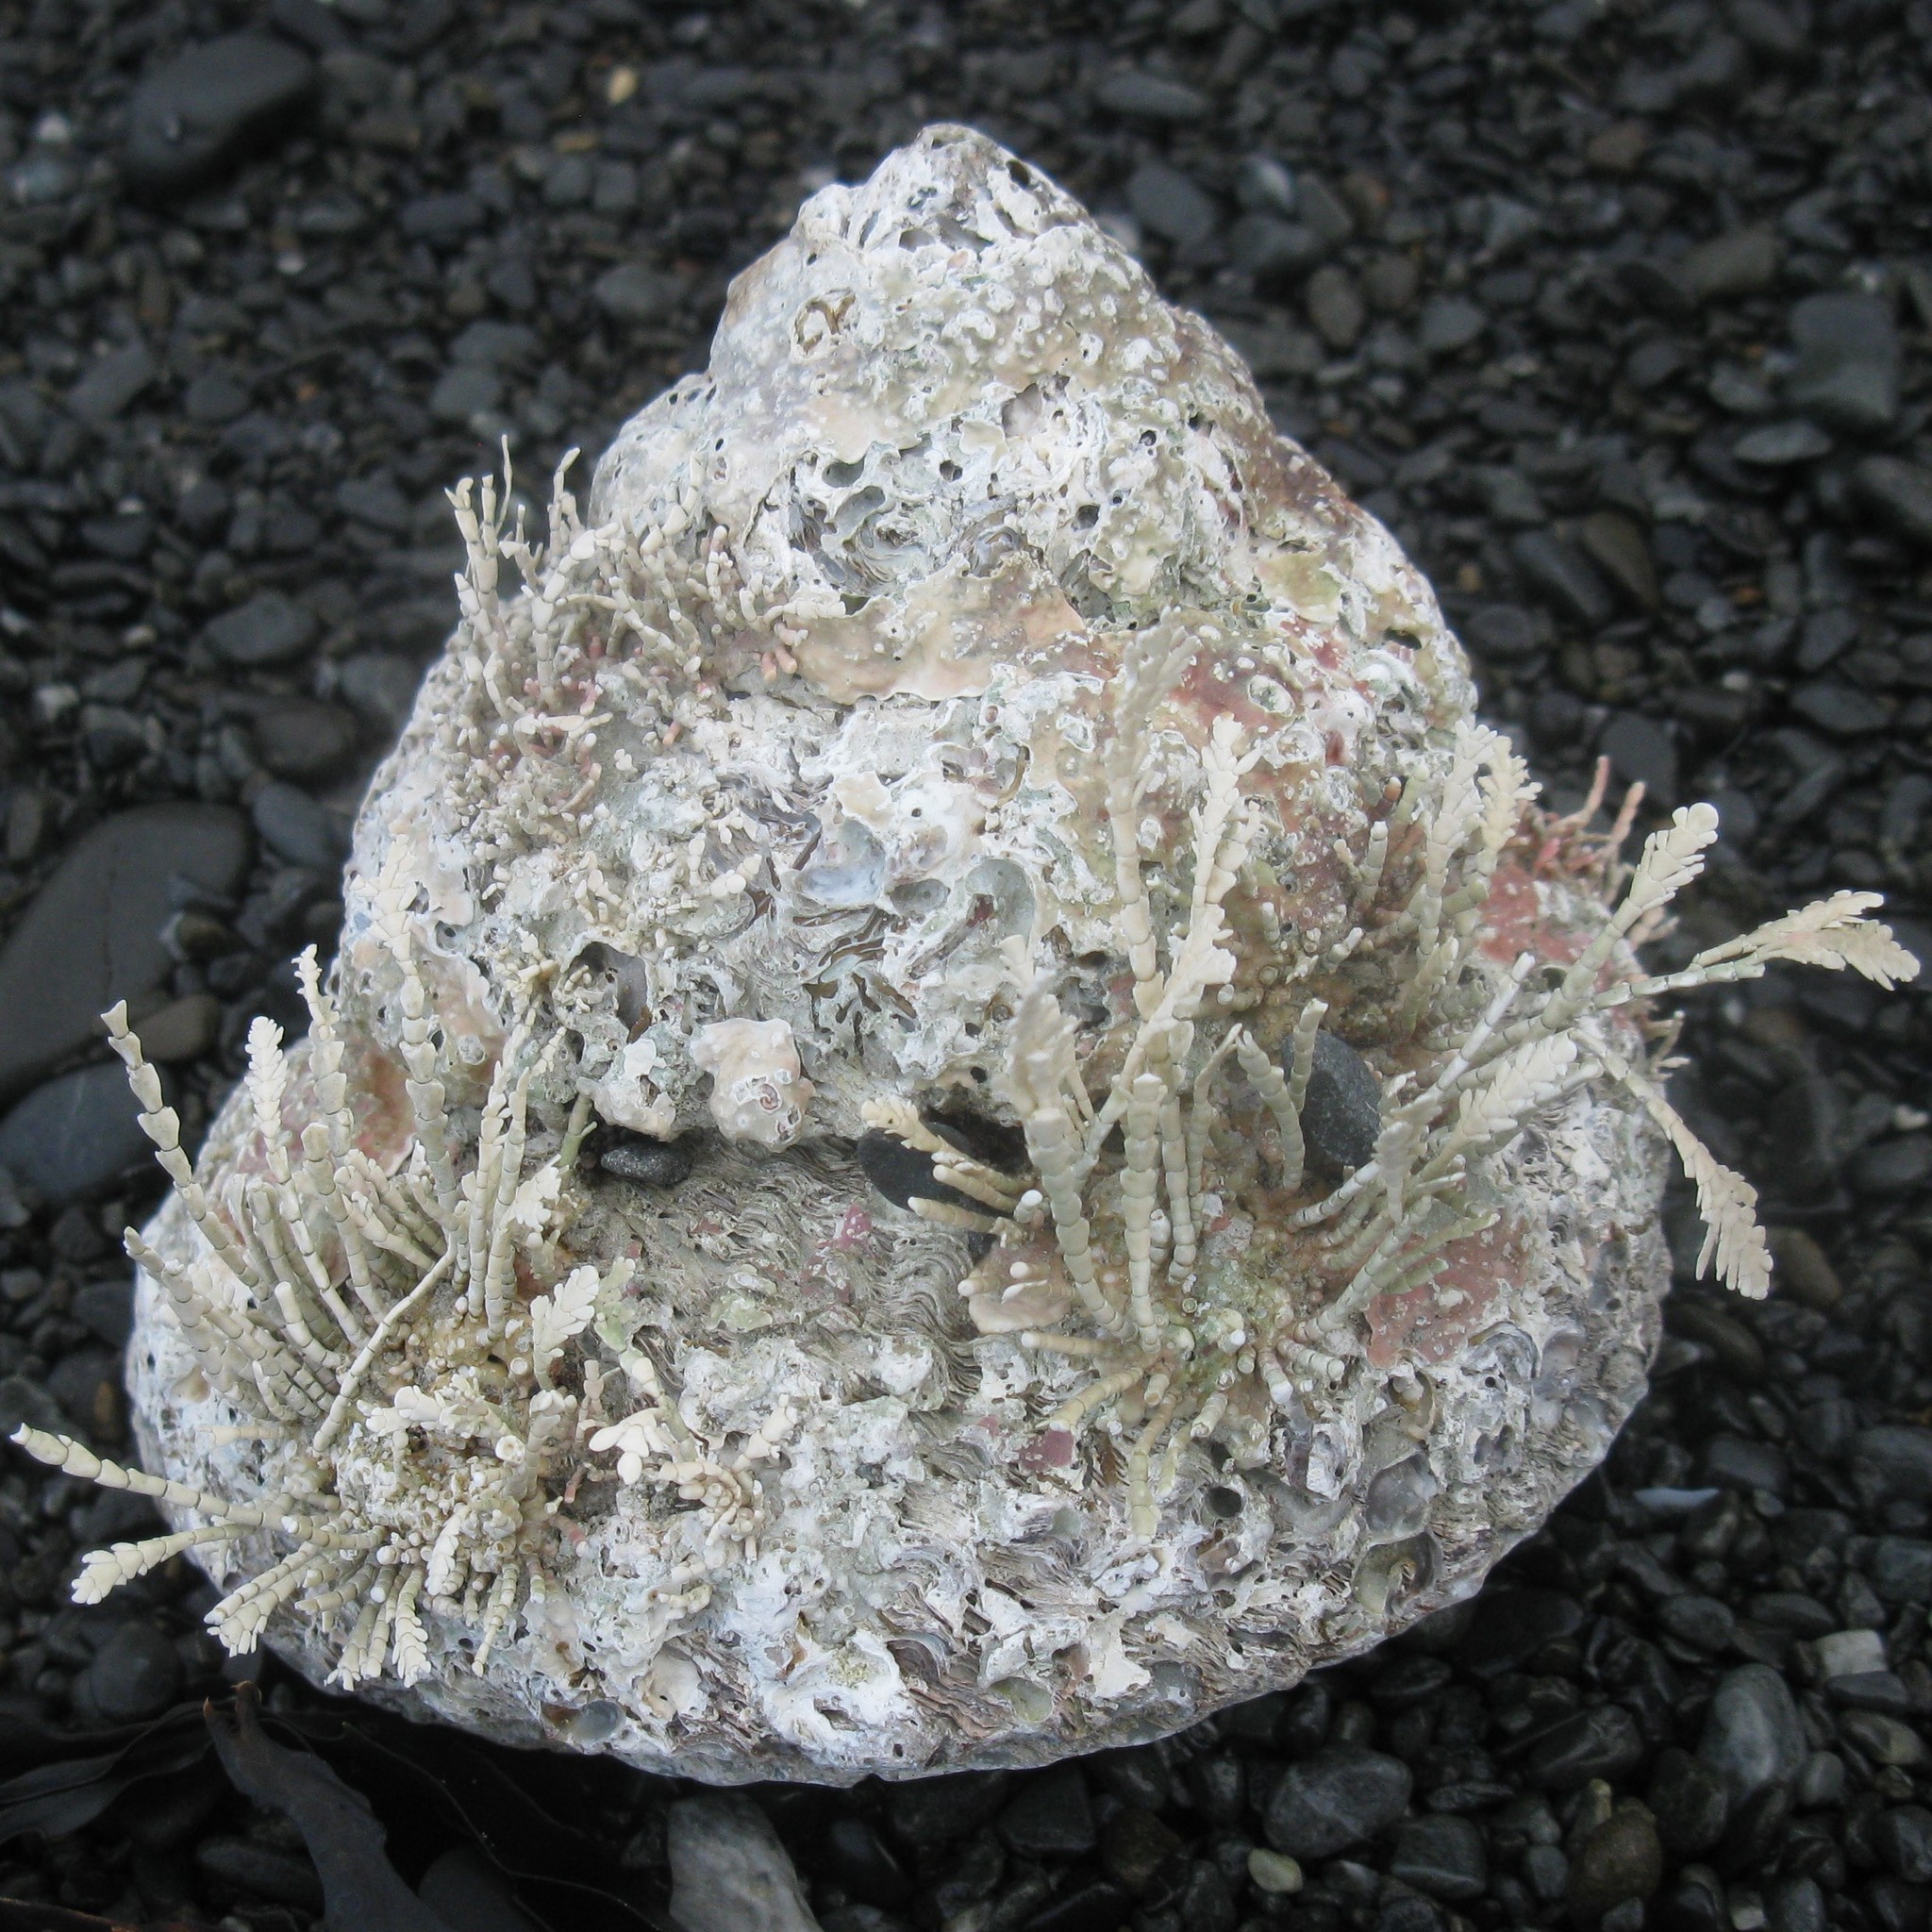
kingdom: Animalia
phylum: Mollusca
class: Gastropoda
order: Trochida
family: Turbinidae
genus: Cookia
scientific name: Cookia sulcata
